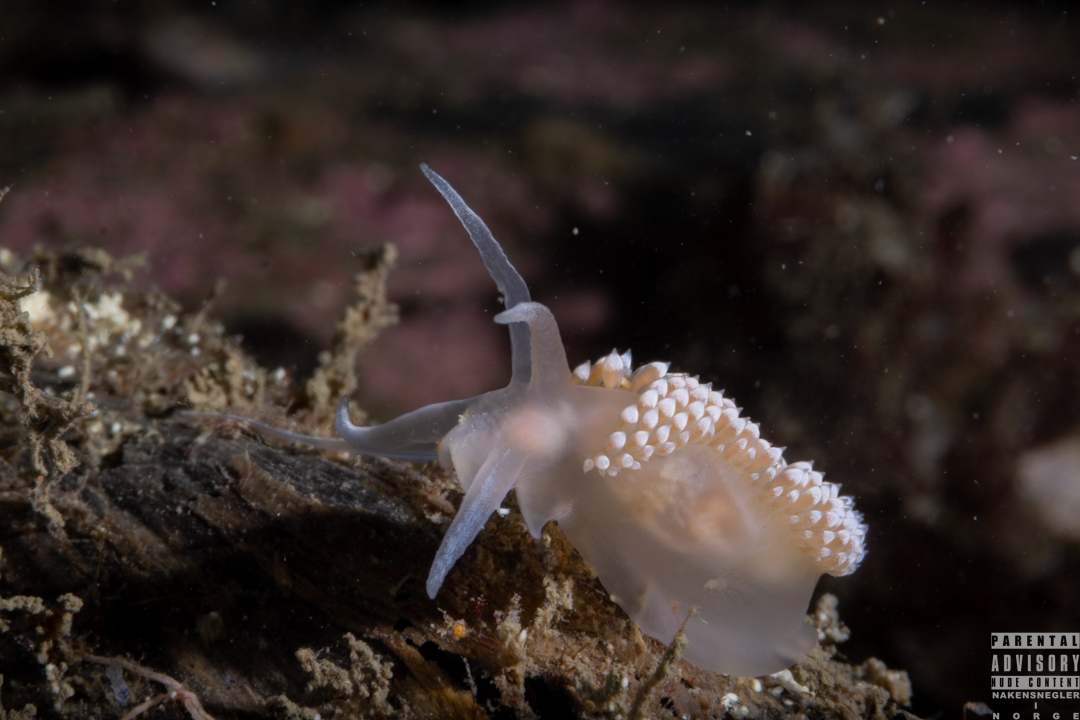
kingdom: Animalia
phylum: Mollusca
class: Gastropoda
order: Nudibranchia
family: Coryphellidae
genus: Coryphella
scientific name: Coryphella verrucosa
